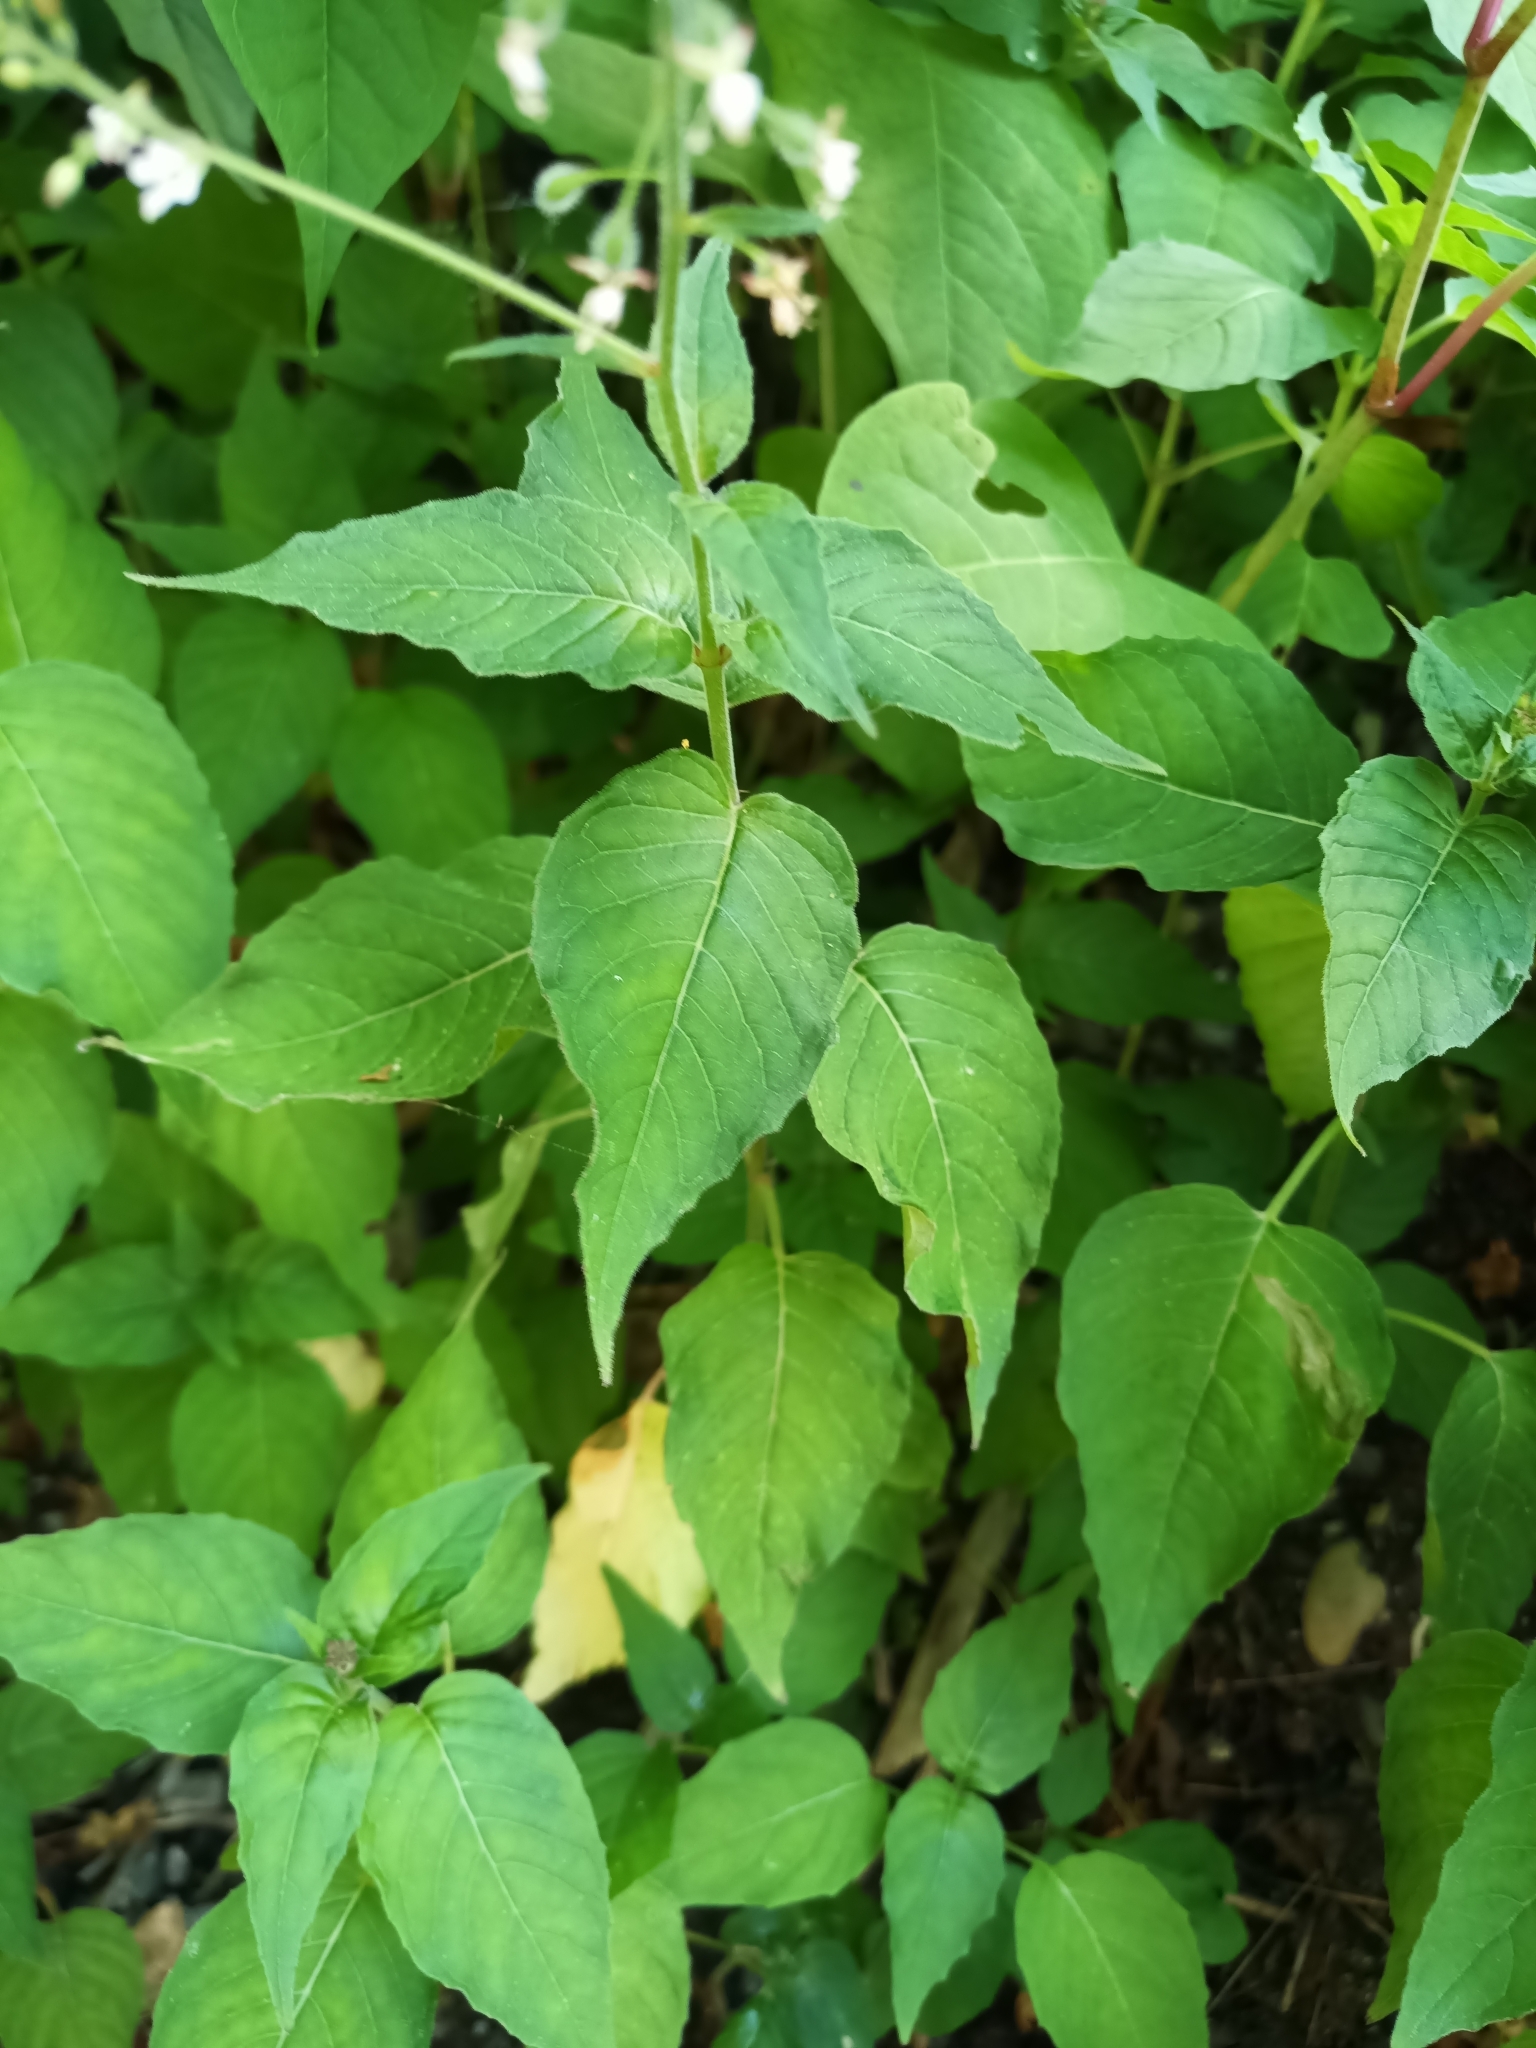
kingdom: Plantae
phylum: Tracheophyta
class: Magnoliopsida
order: Myrtales
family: Onagraceae
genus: Circaea
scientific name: Circaea lutetiana
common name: Enchanter's-nightshade
